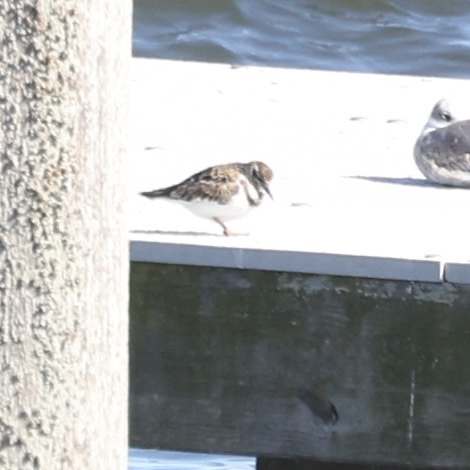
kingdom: Animalia
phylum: Chordata
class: Aves
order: Charadriiformes
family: Scolopacidae
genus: Arenaria
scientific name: Arenaria interpres
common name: Ruddy turnstone
